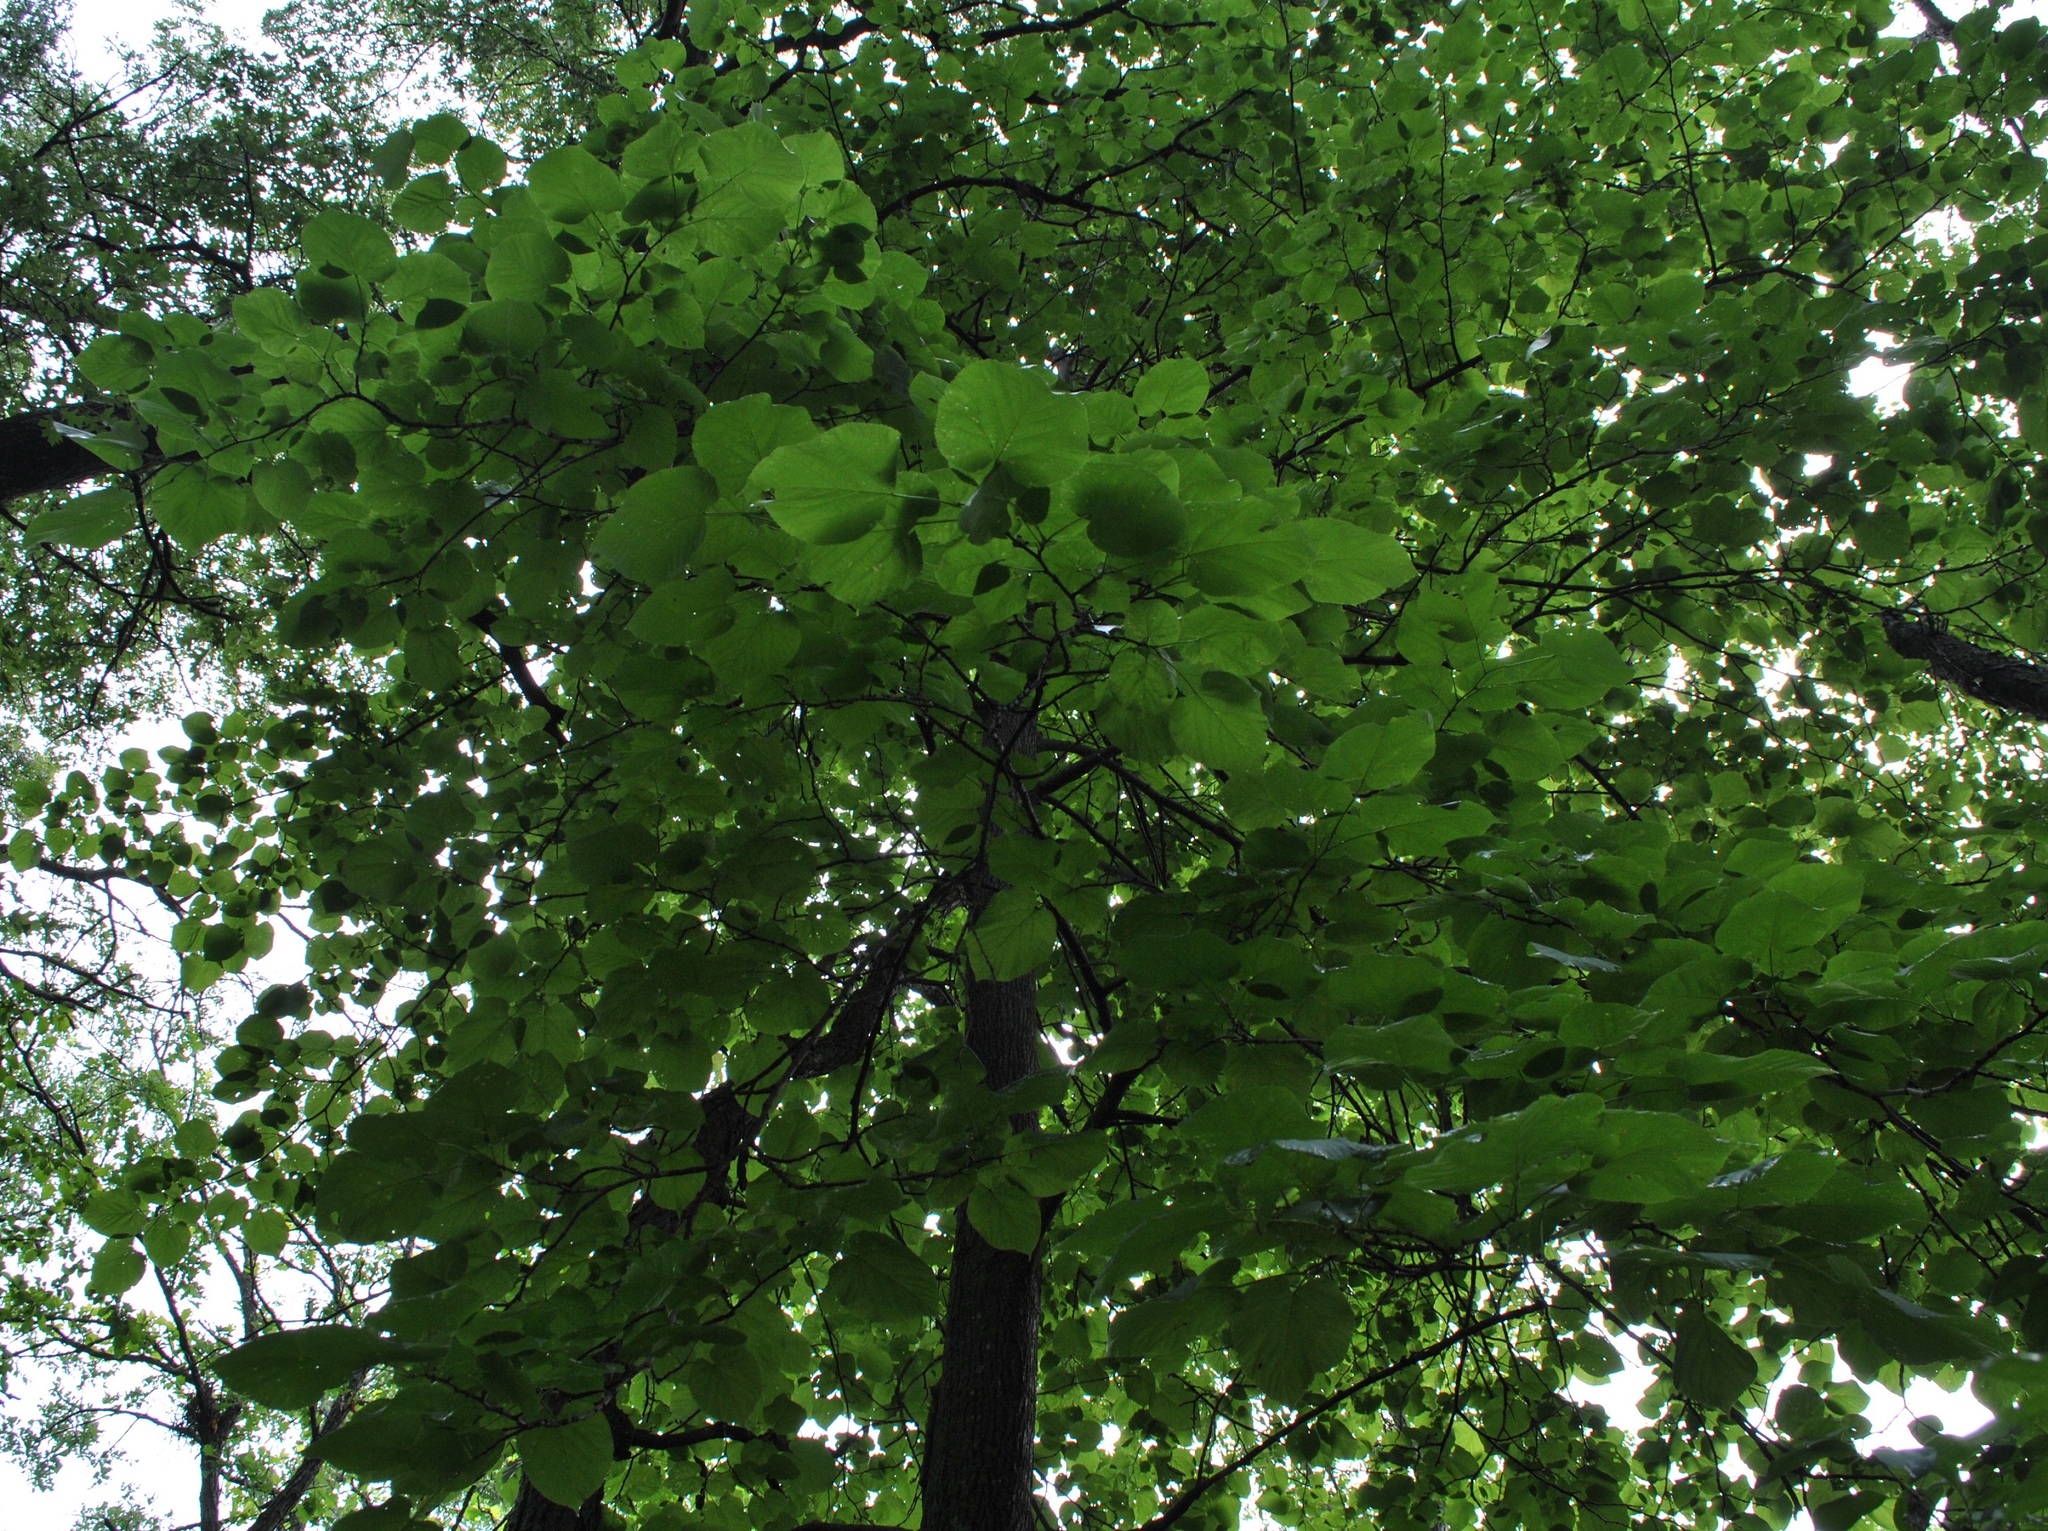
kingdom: Plantae
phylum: Tracheophyta
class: Magnoliopsida
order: Malvales
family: Malvaceae
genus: Tilia
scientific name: Tilia americana
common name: Basswood
